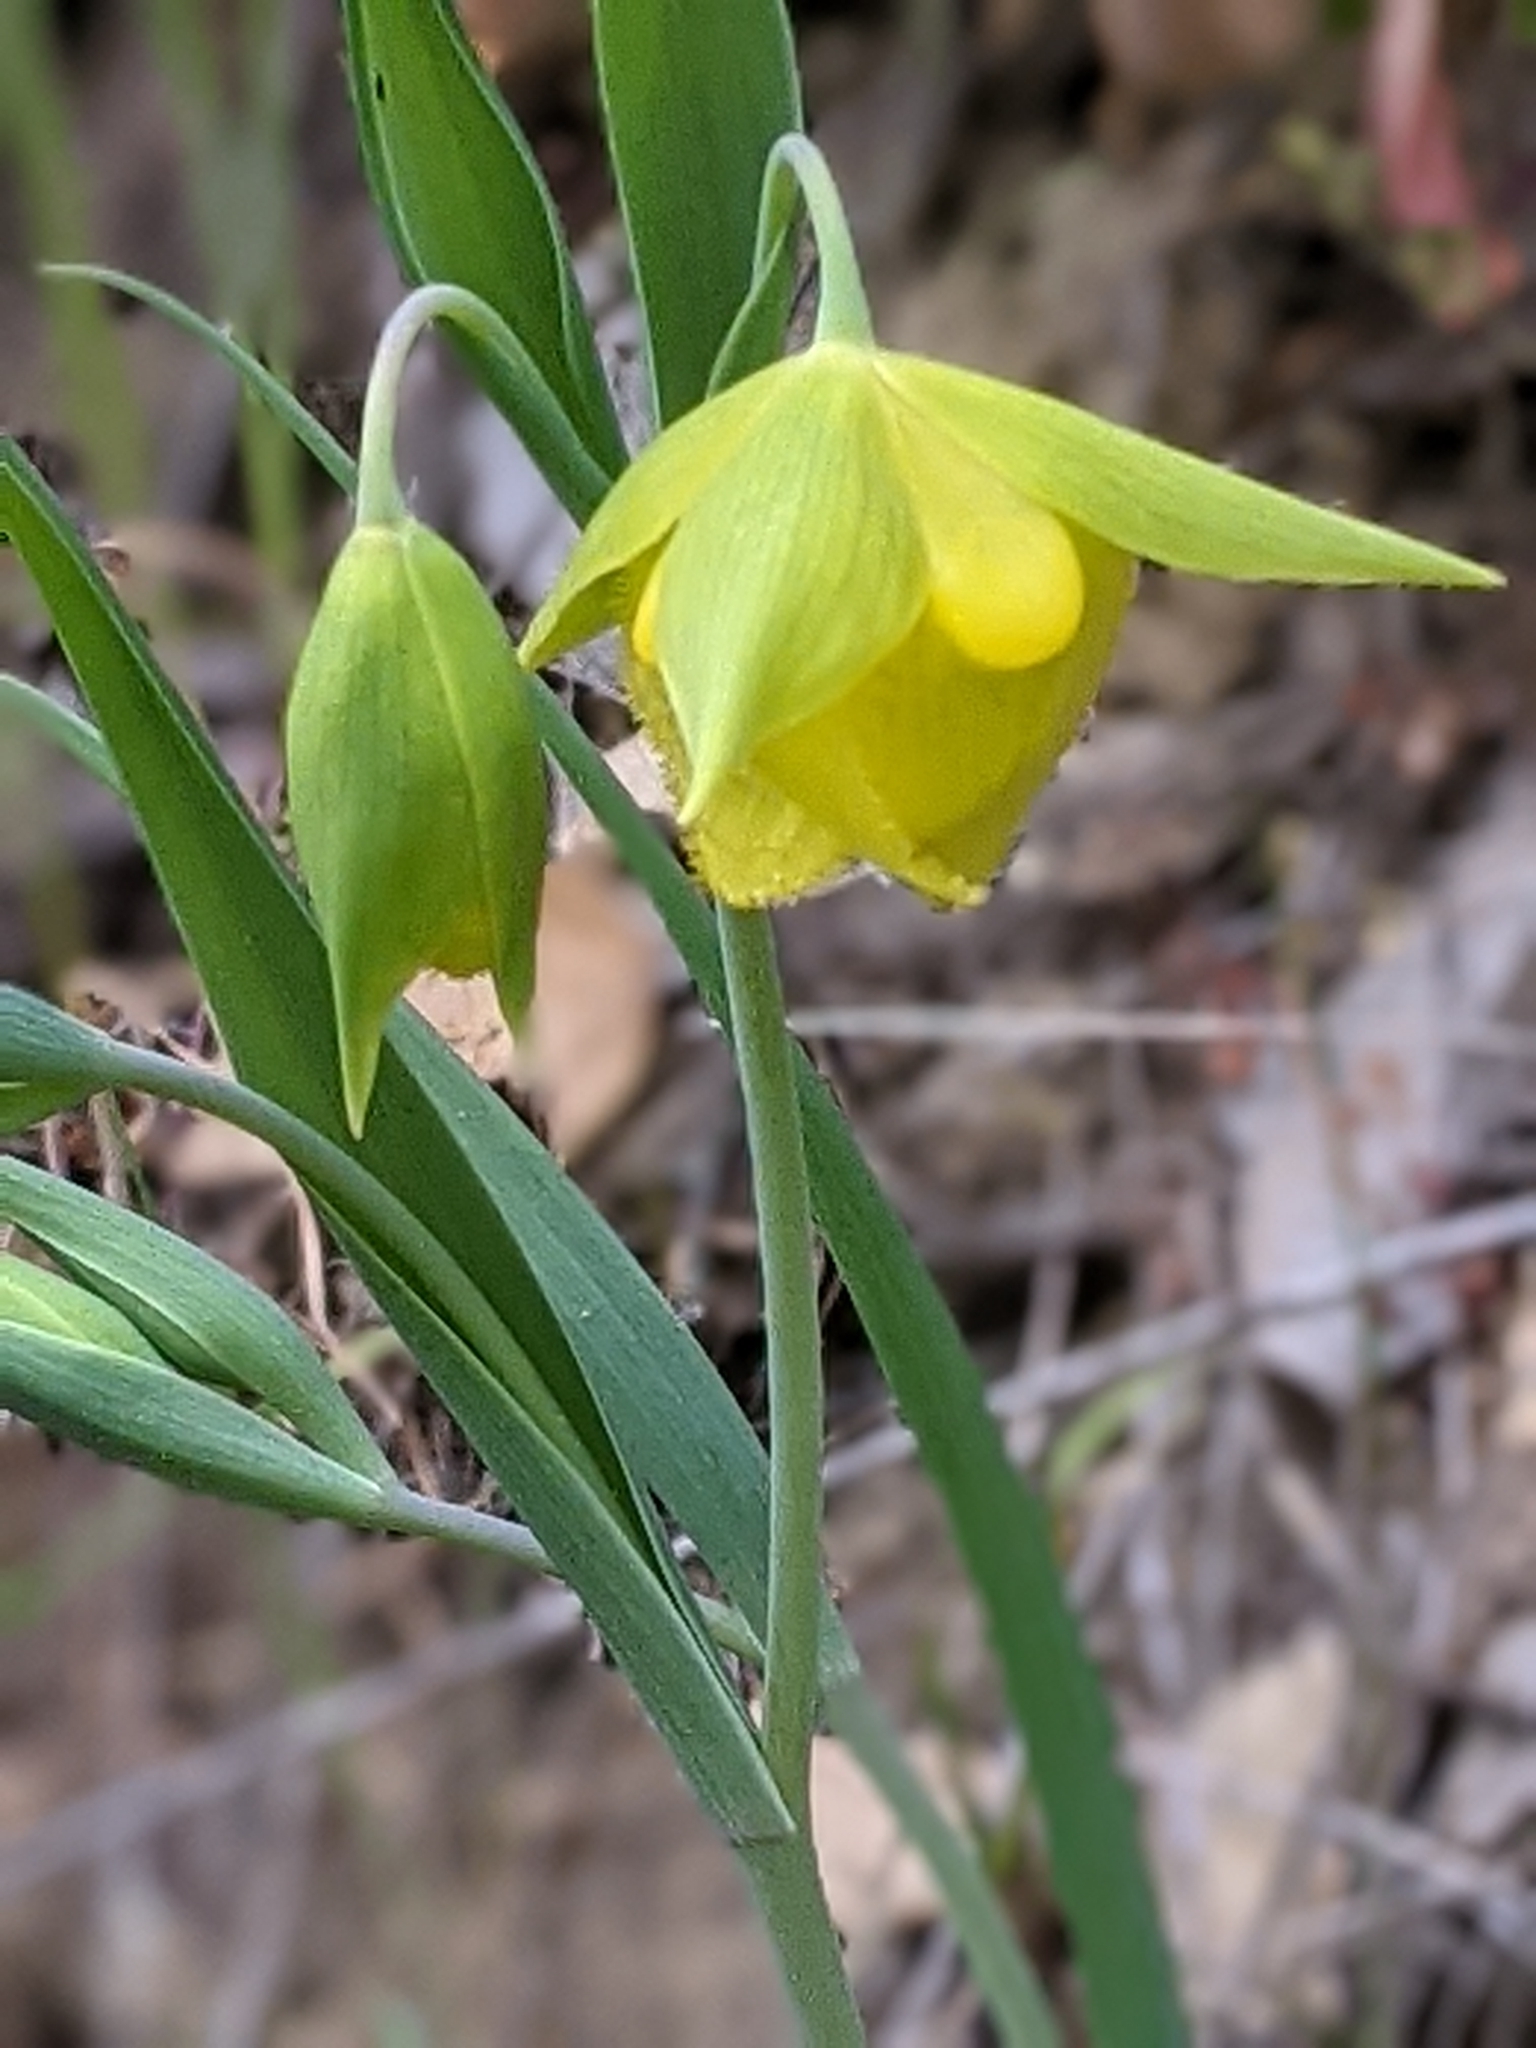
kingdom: Plantae
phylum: Tracheophyta
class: Liliopsida
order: Liliales
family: Liliaceae
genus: Calochortus
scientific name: Calochortus pulchellus
